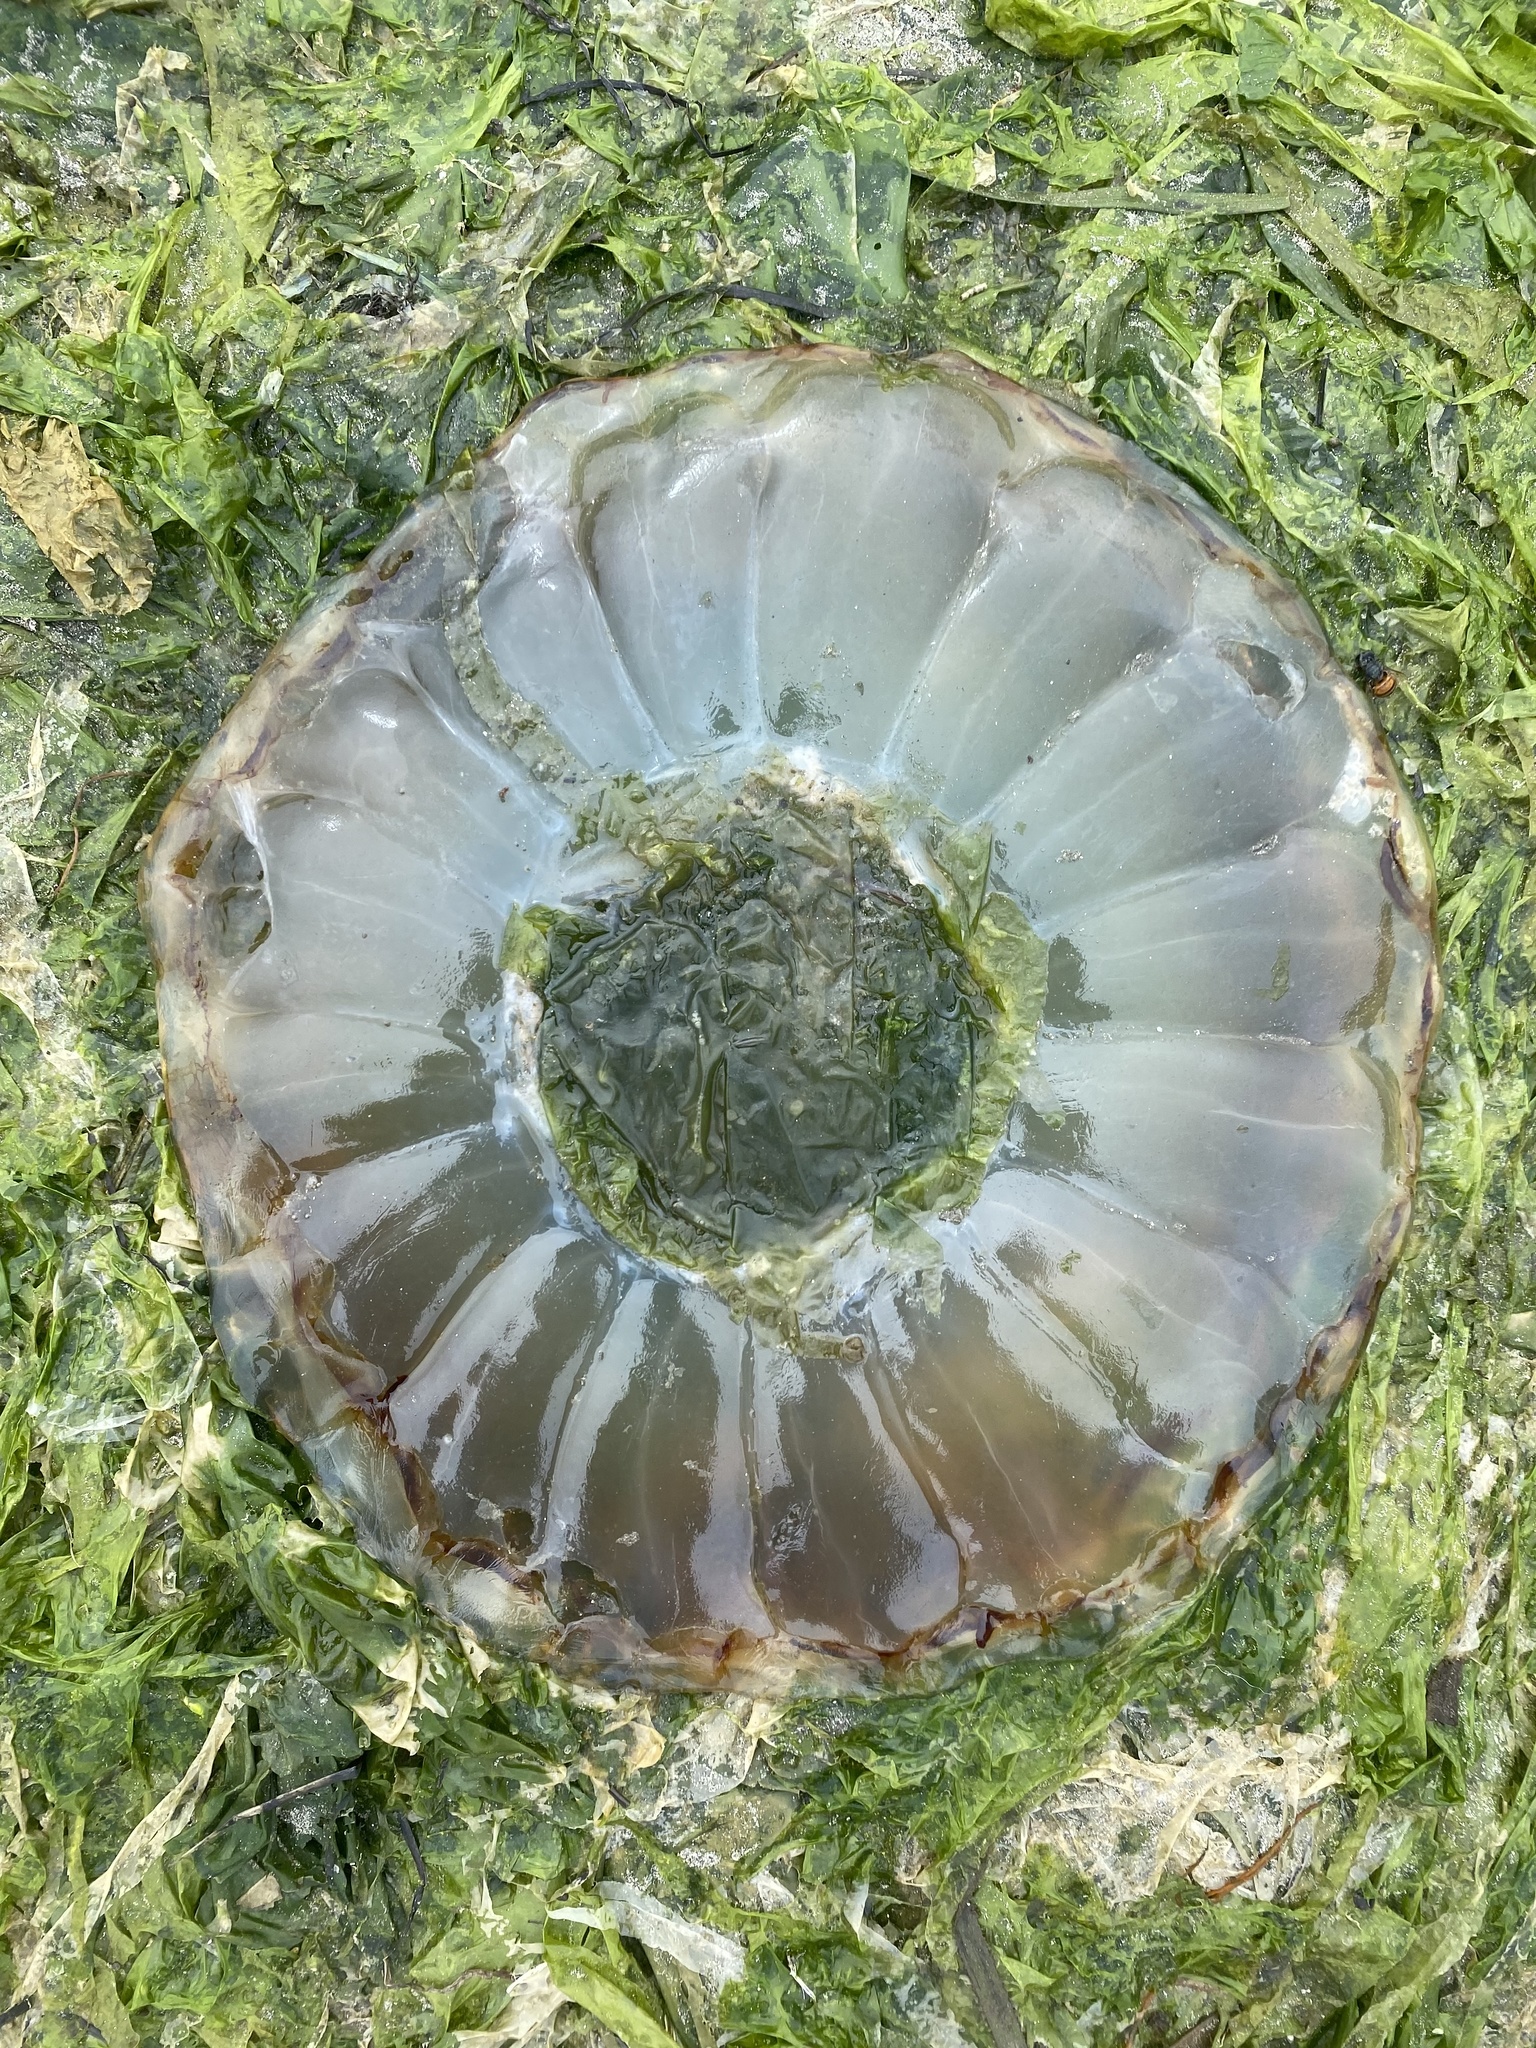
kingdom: Animalia
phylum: Cnidaria
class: Scyphozoa
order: Semaeostomeae
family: Pelagiidae
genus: Chrysaora
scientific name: Chrysaora fuscescens
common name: Sea nettle
